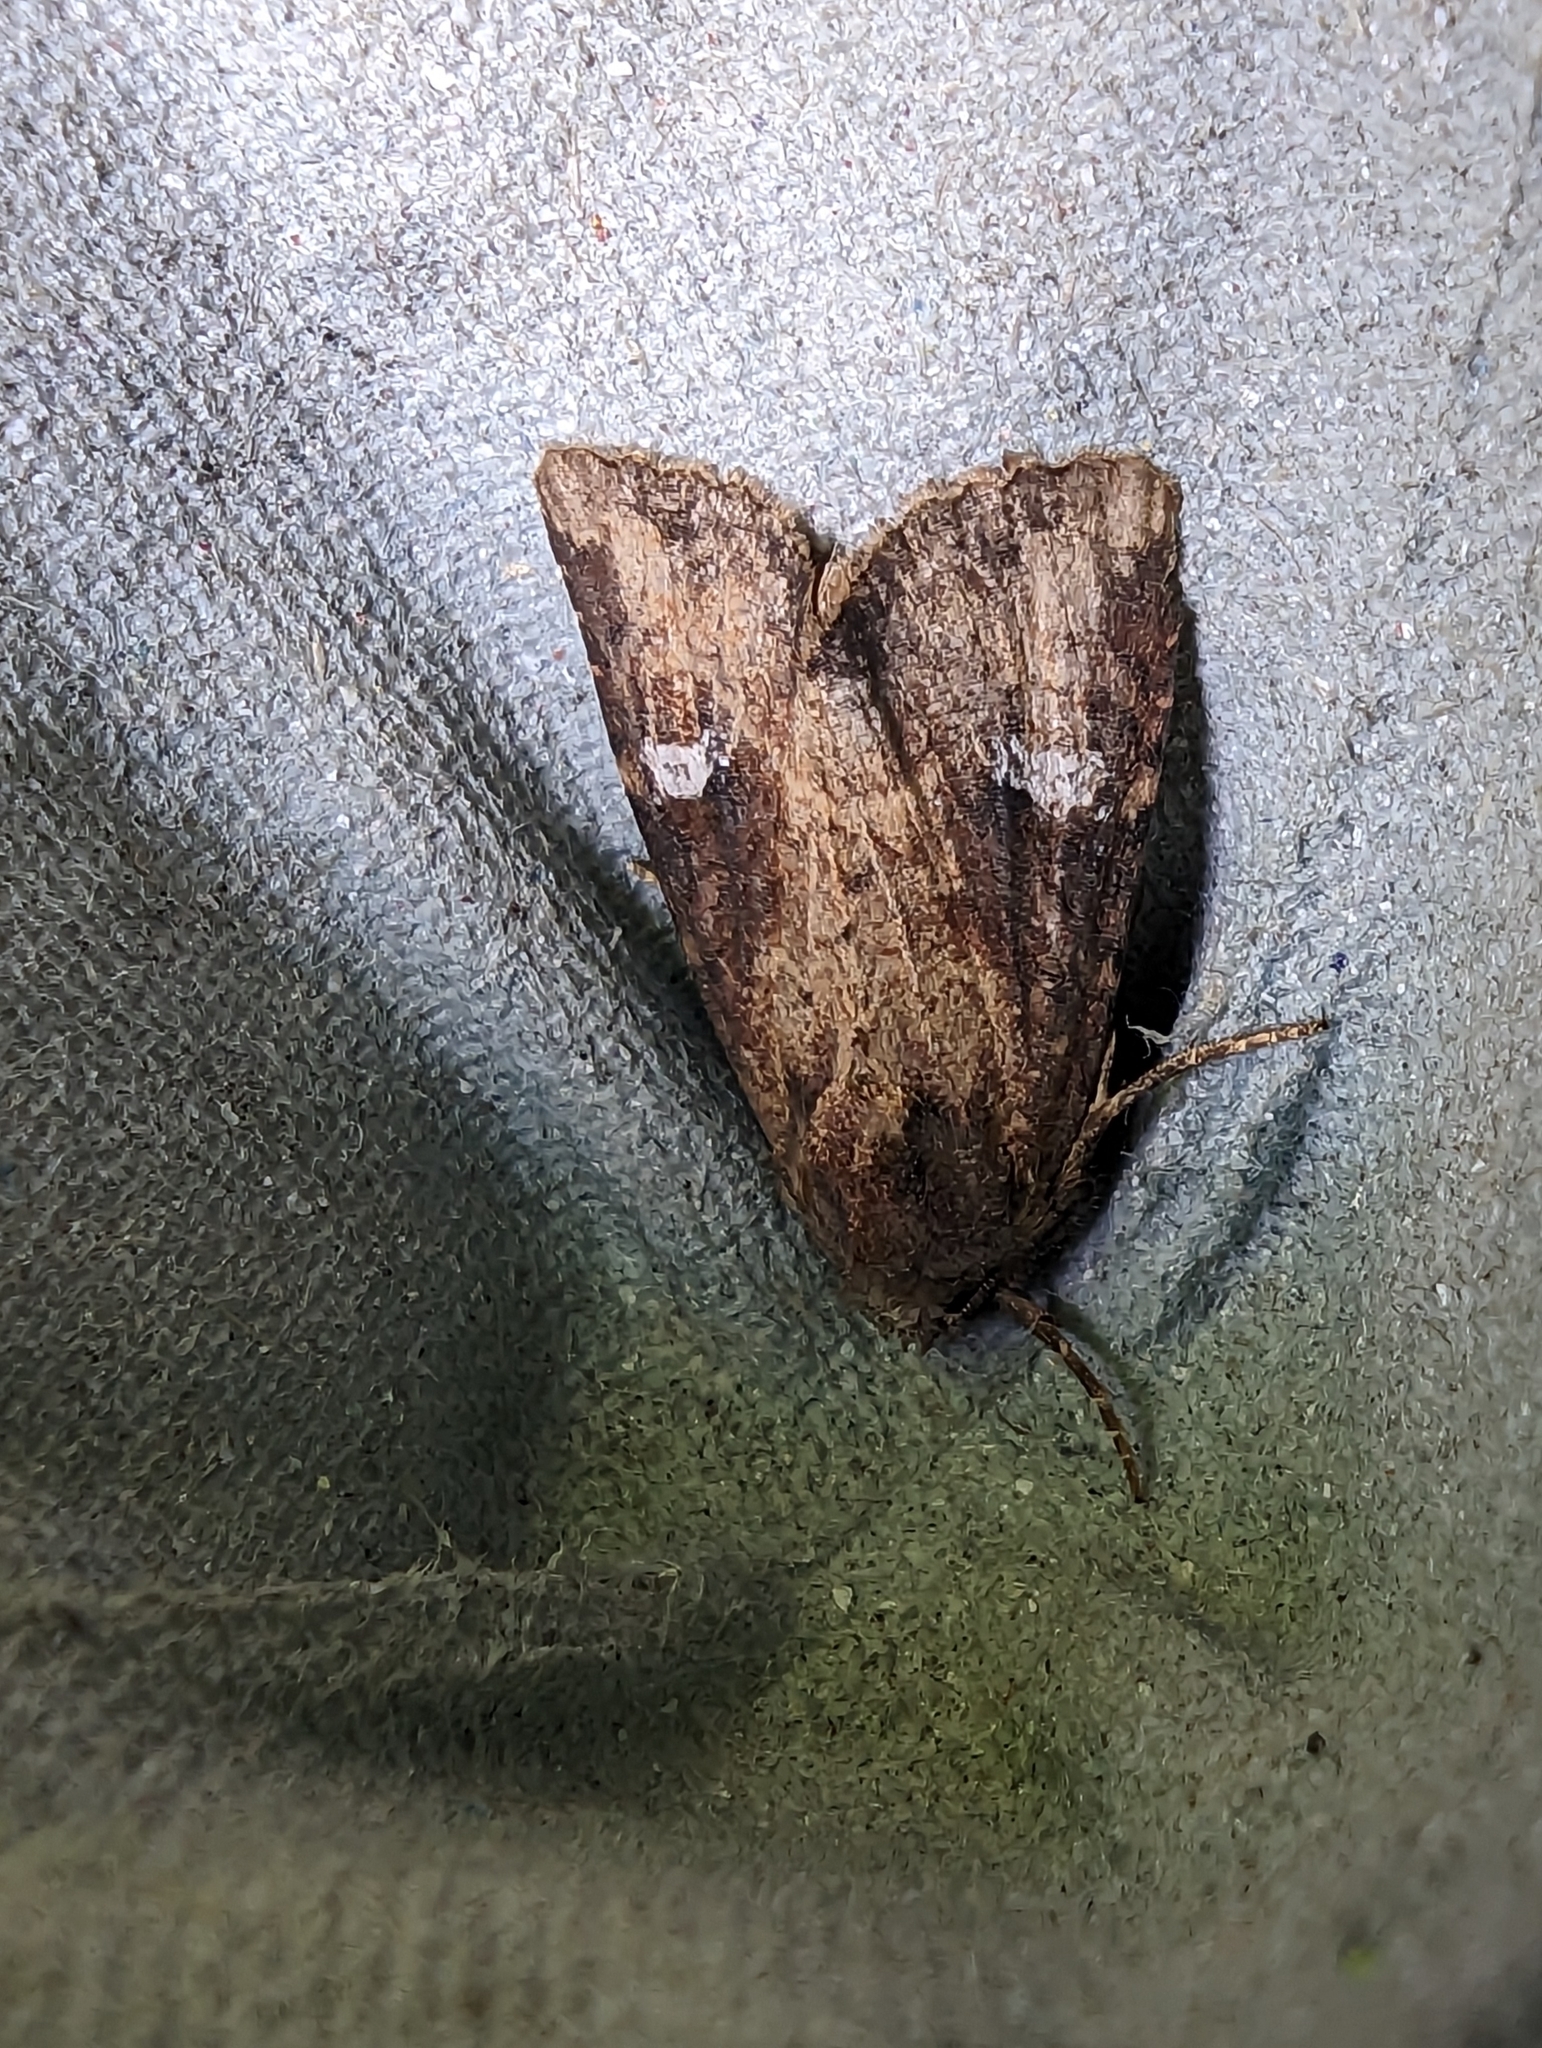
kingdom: Animalia
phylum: Arthropoda
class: Insecta
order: Lepidoptera
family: Noctuidae
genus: Mesapamea
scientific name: Mesapamea
